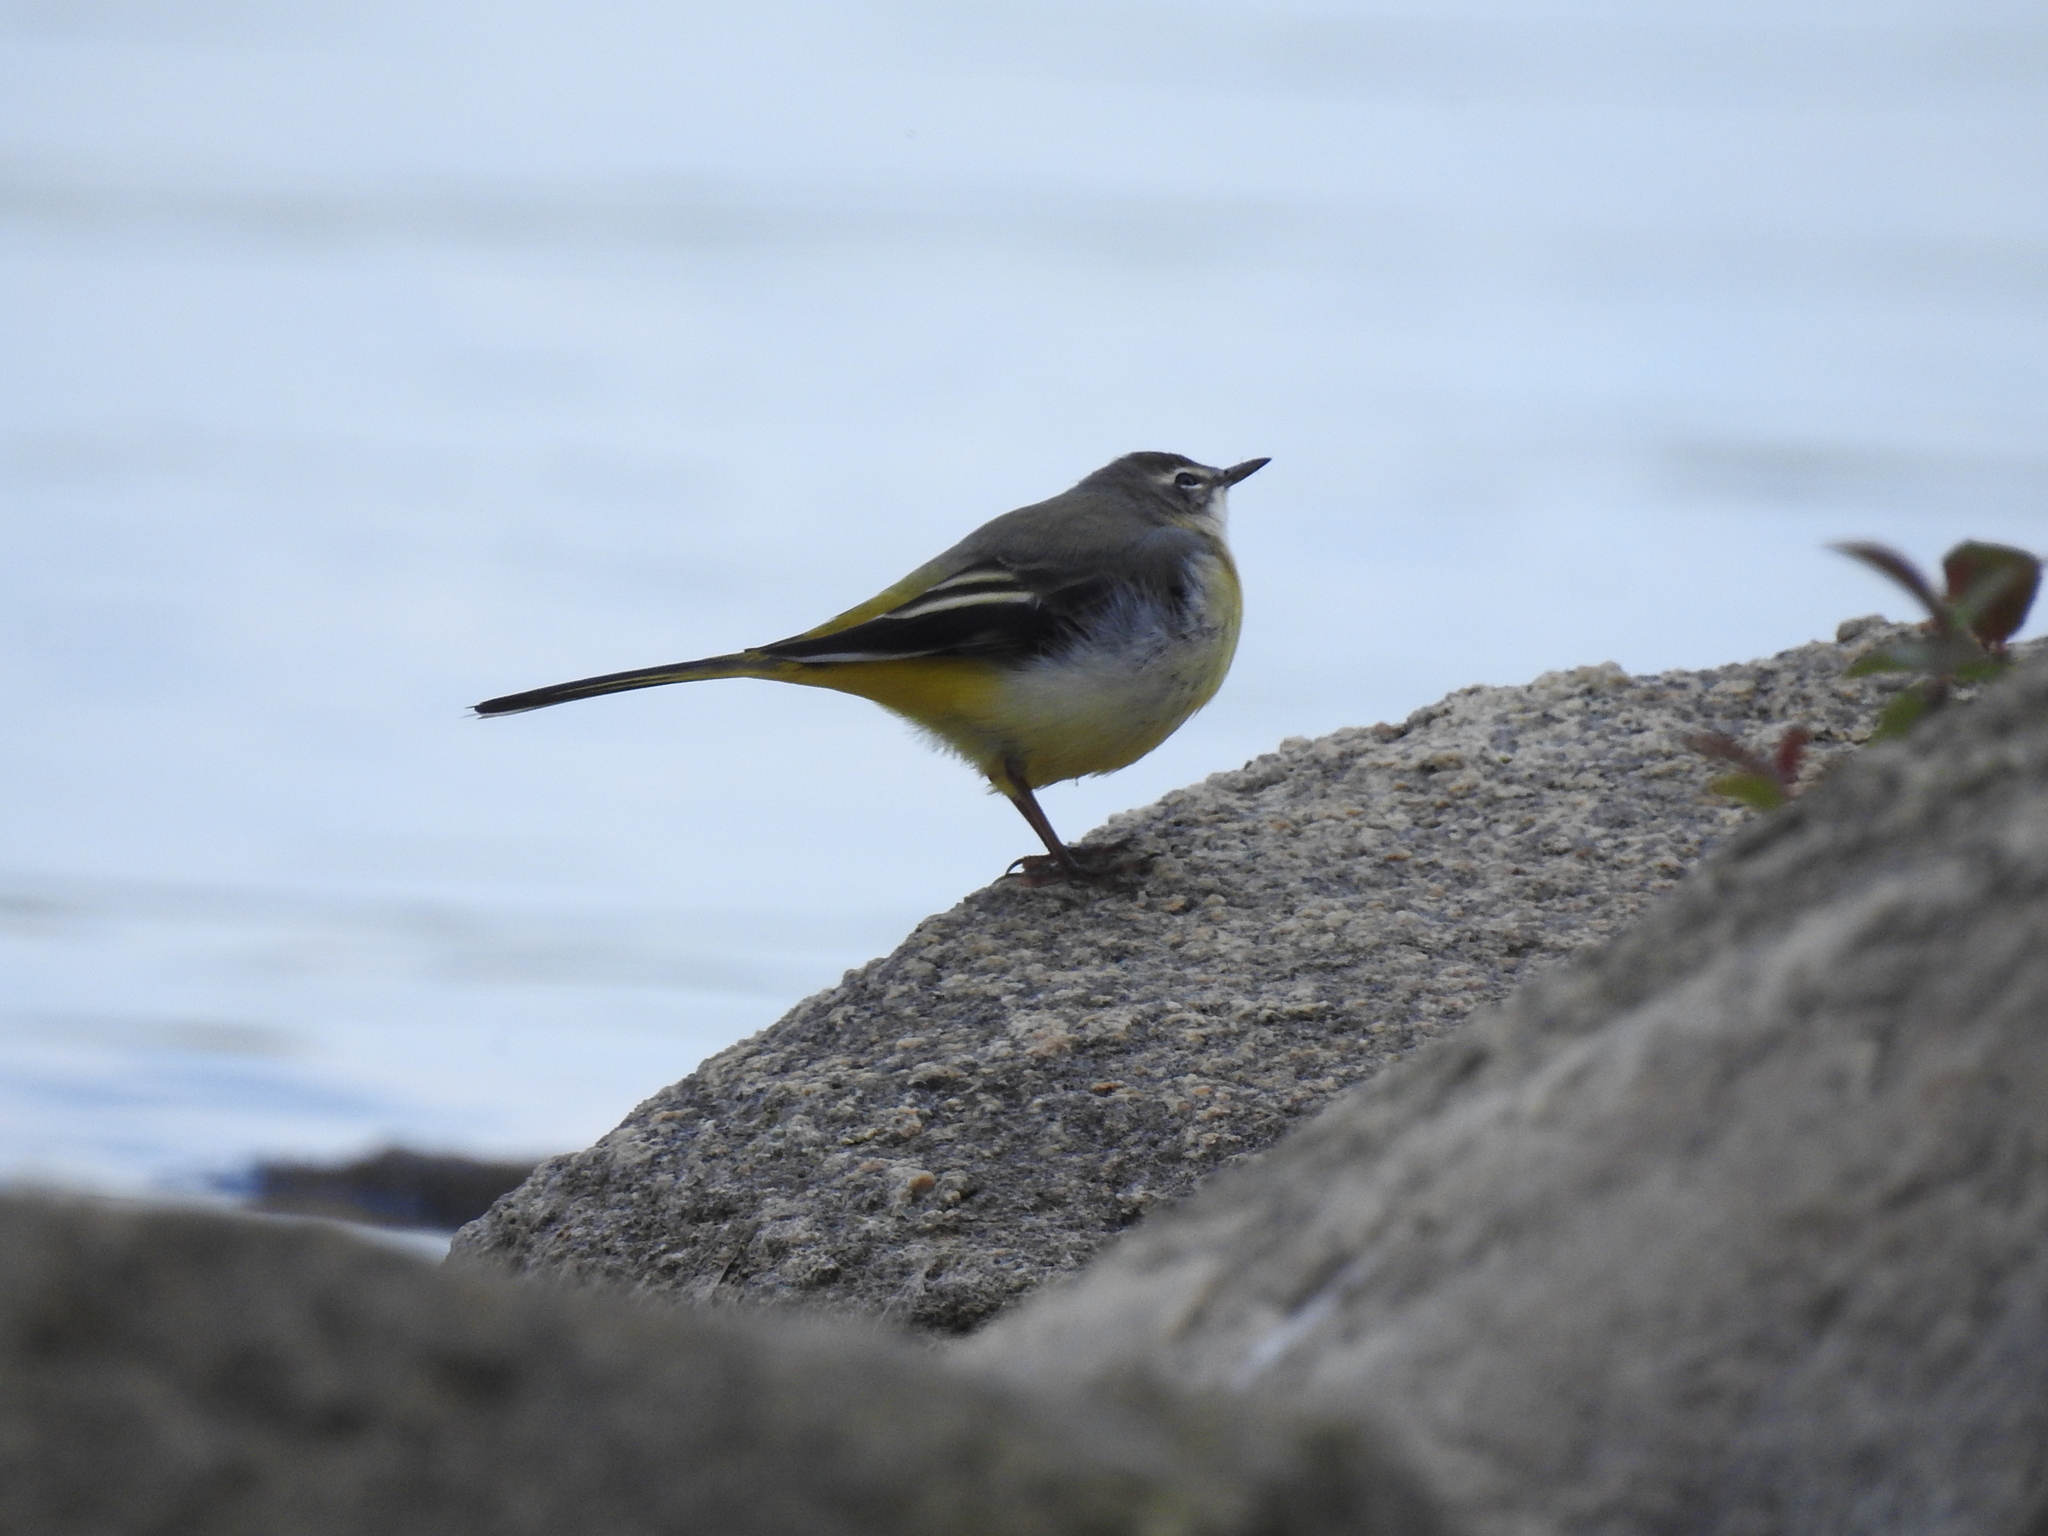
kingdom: Animalia
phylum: Chordata
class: Aves
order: Passeriformes
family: Motacillidae
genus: Motacilla
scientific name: Motacilla cinerea
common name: Grey wagtail
